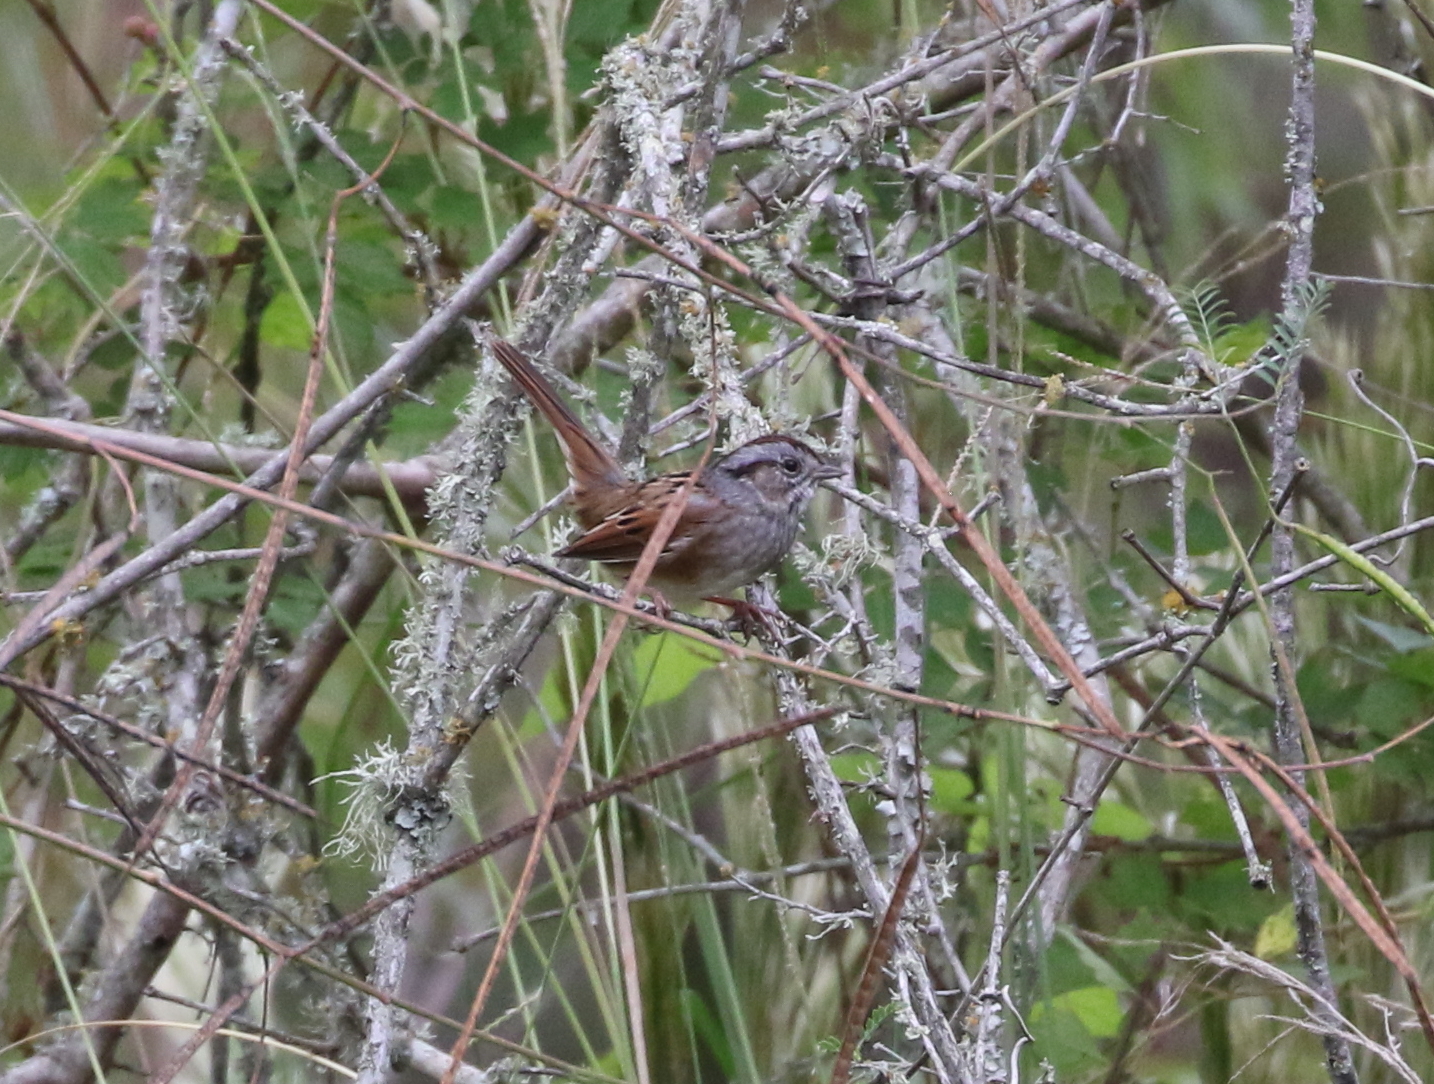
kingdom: Animalia
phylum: Chordata
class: Aves
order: Passeriformes
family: Passerellidae
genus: Melospiza
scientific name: Melospiza georgiana
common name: Swamp sparrow
